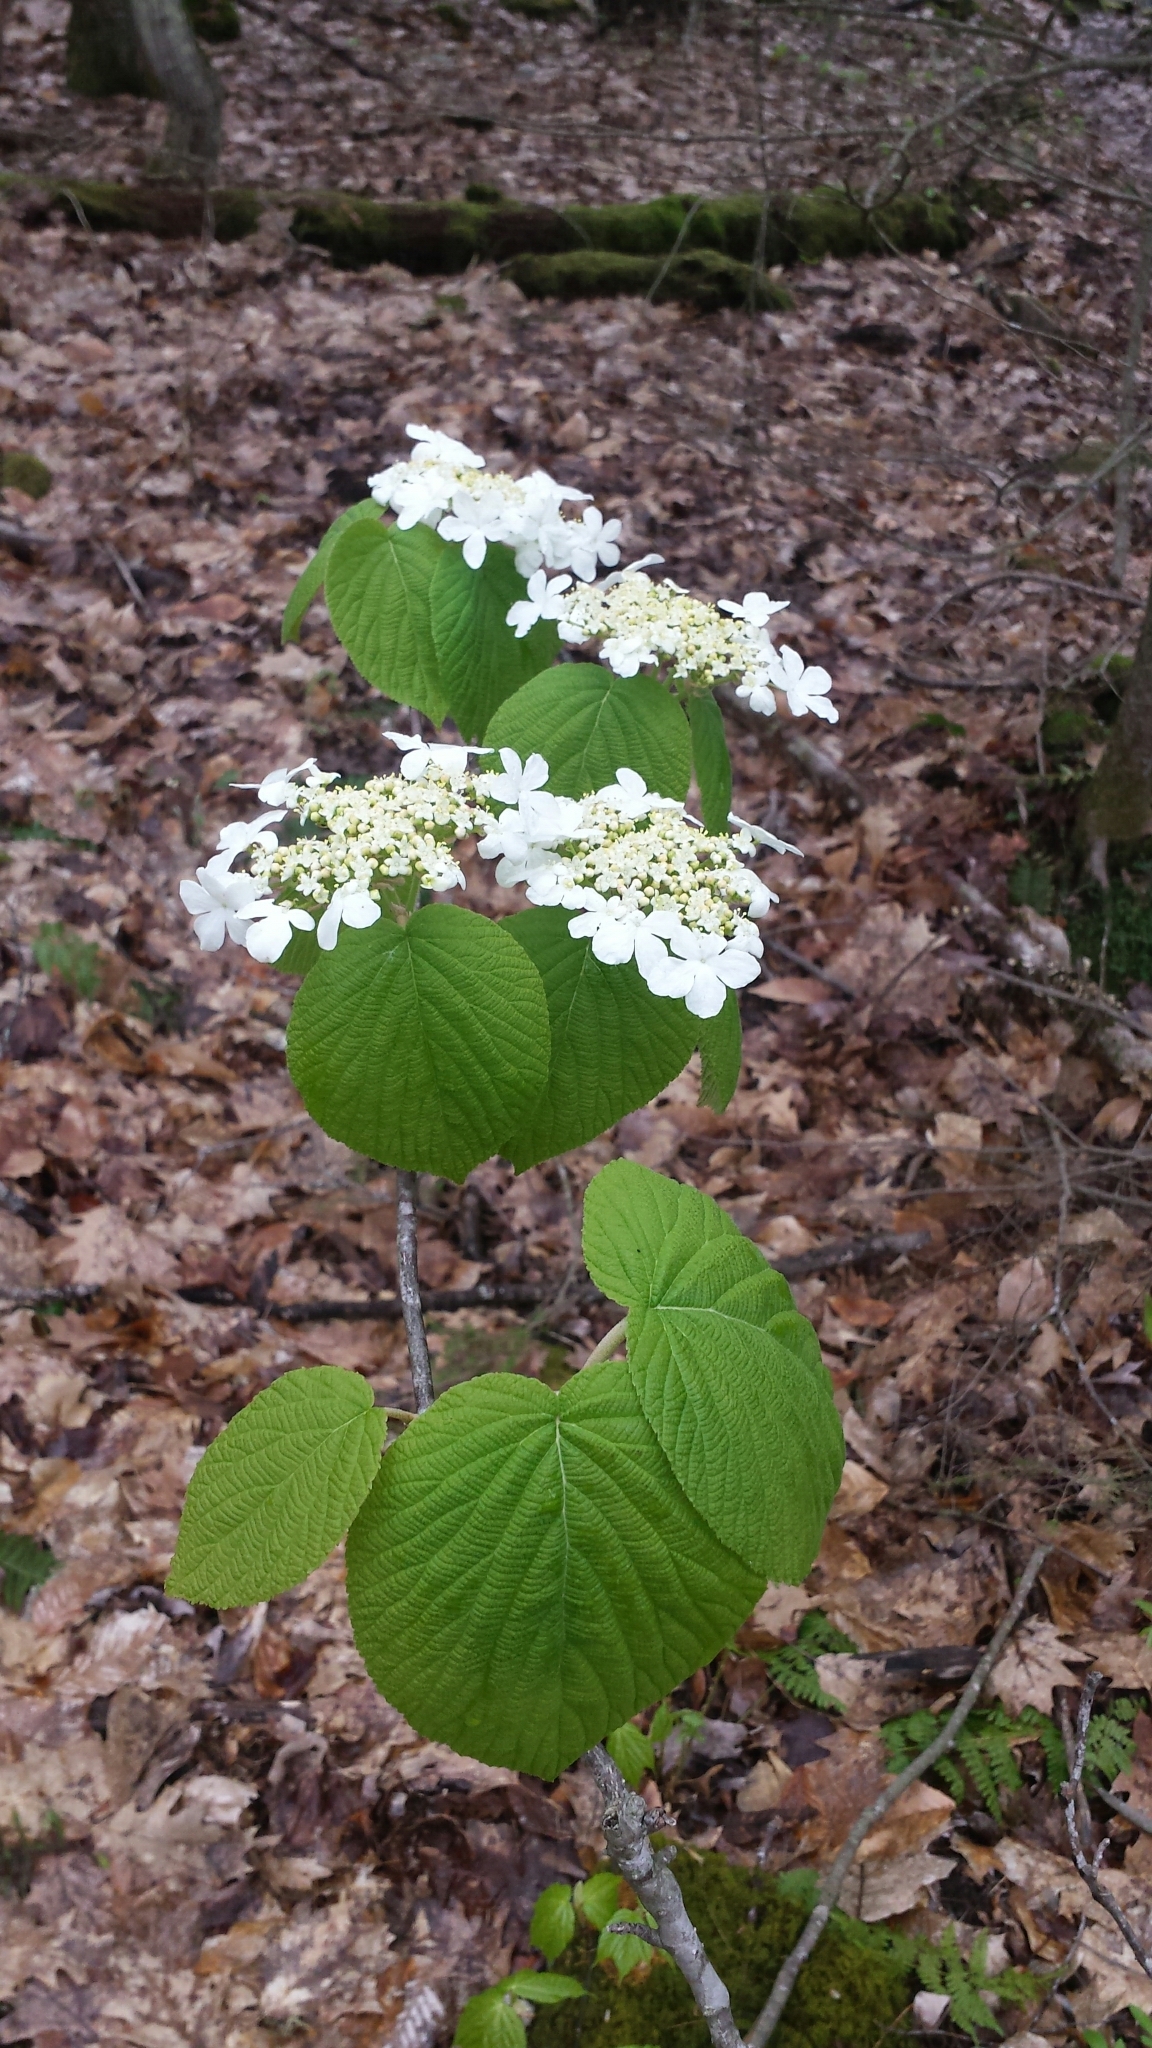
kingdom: Plantae
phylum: Tracheophyta
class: Magnoliopsida
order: Dipsacales
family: Viburnaceae
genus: Viburnum
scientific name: Viburnum lantanoides
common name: Hobblebush
